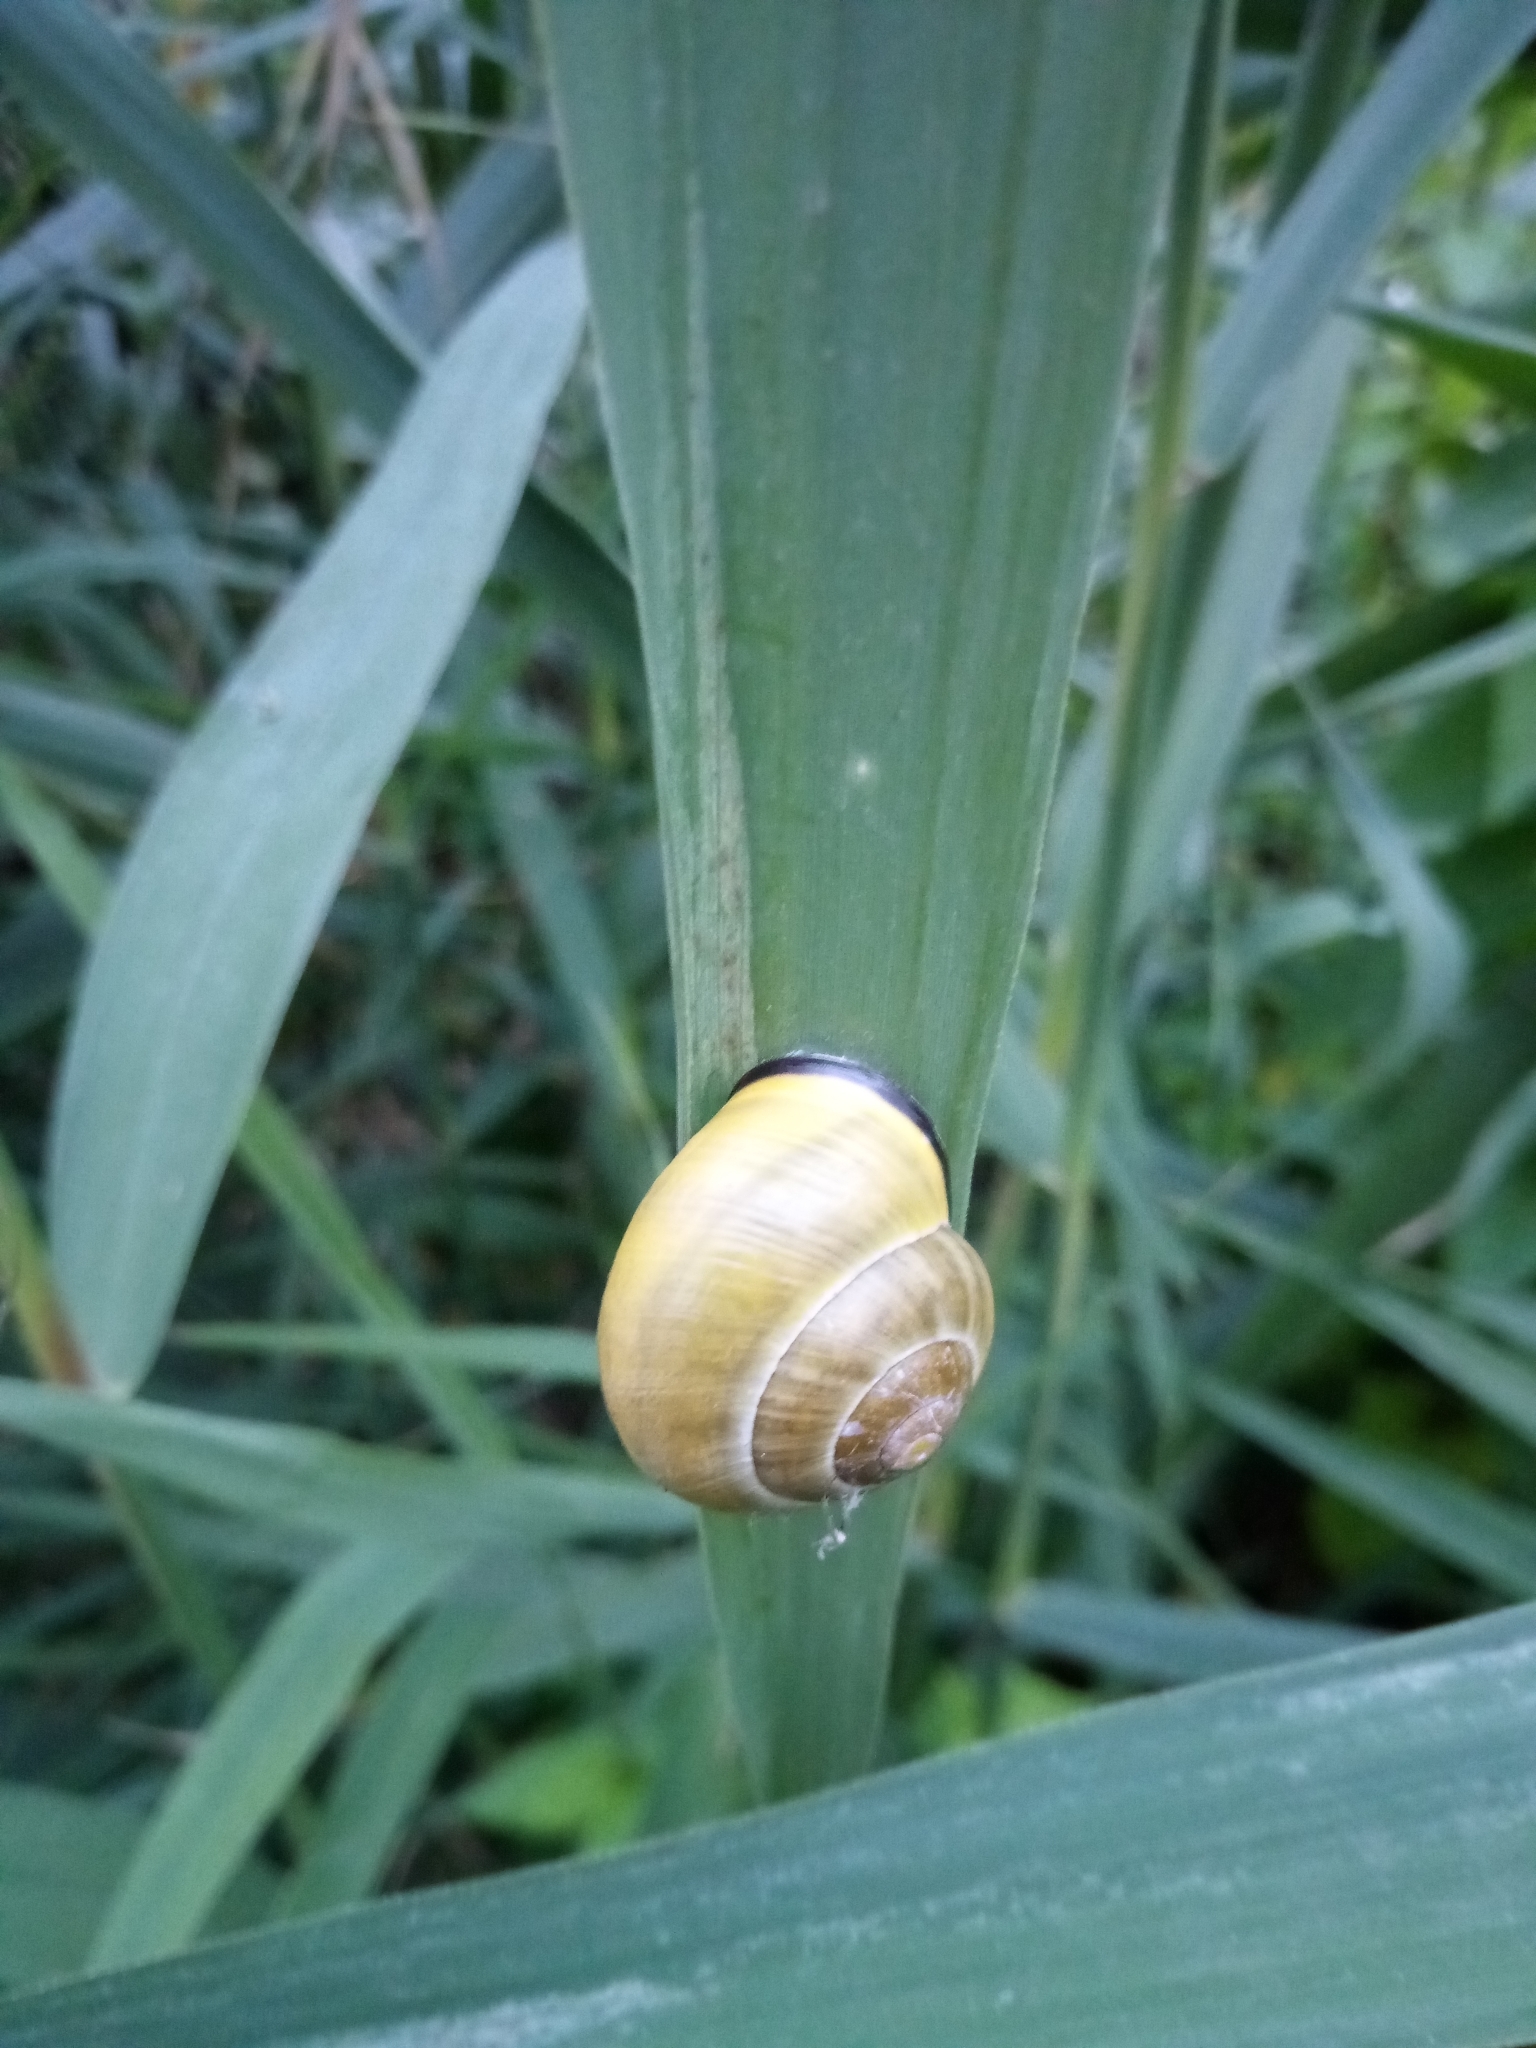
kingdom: Animalia
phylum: Mollusca
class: Gastropoda
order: Stylommatophora
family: Helicidae
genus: Cepaea
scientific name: Cepaea nemoralis
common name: Grovesnail
